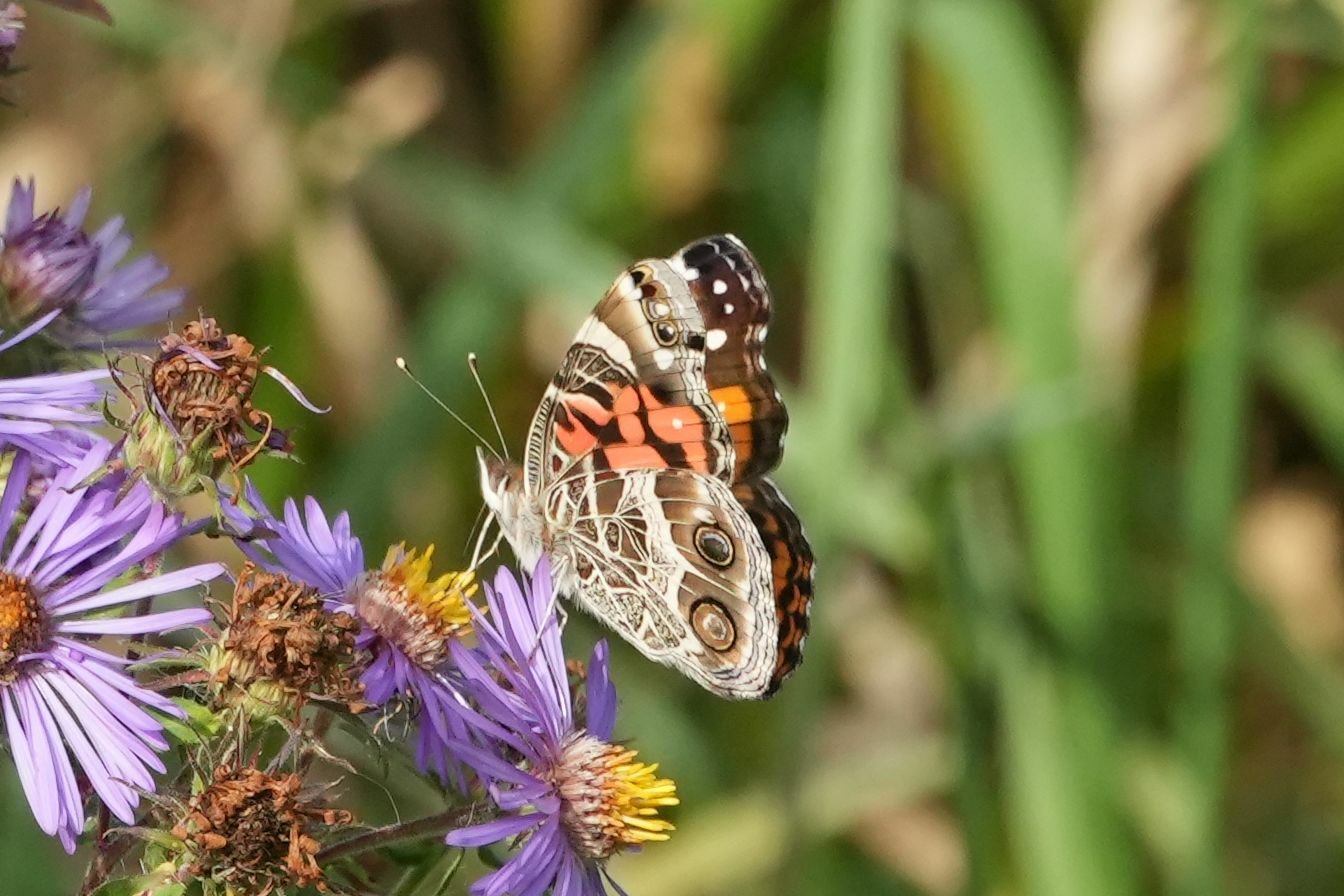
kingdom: Animalia
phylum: Arthropoda
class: Insecta
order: Lepidoptera
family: Nymphalidae
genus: Vanessa
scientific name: Vanessa virginiensis
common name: American lady
